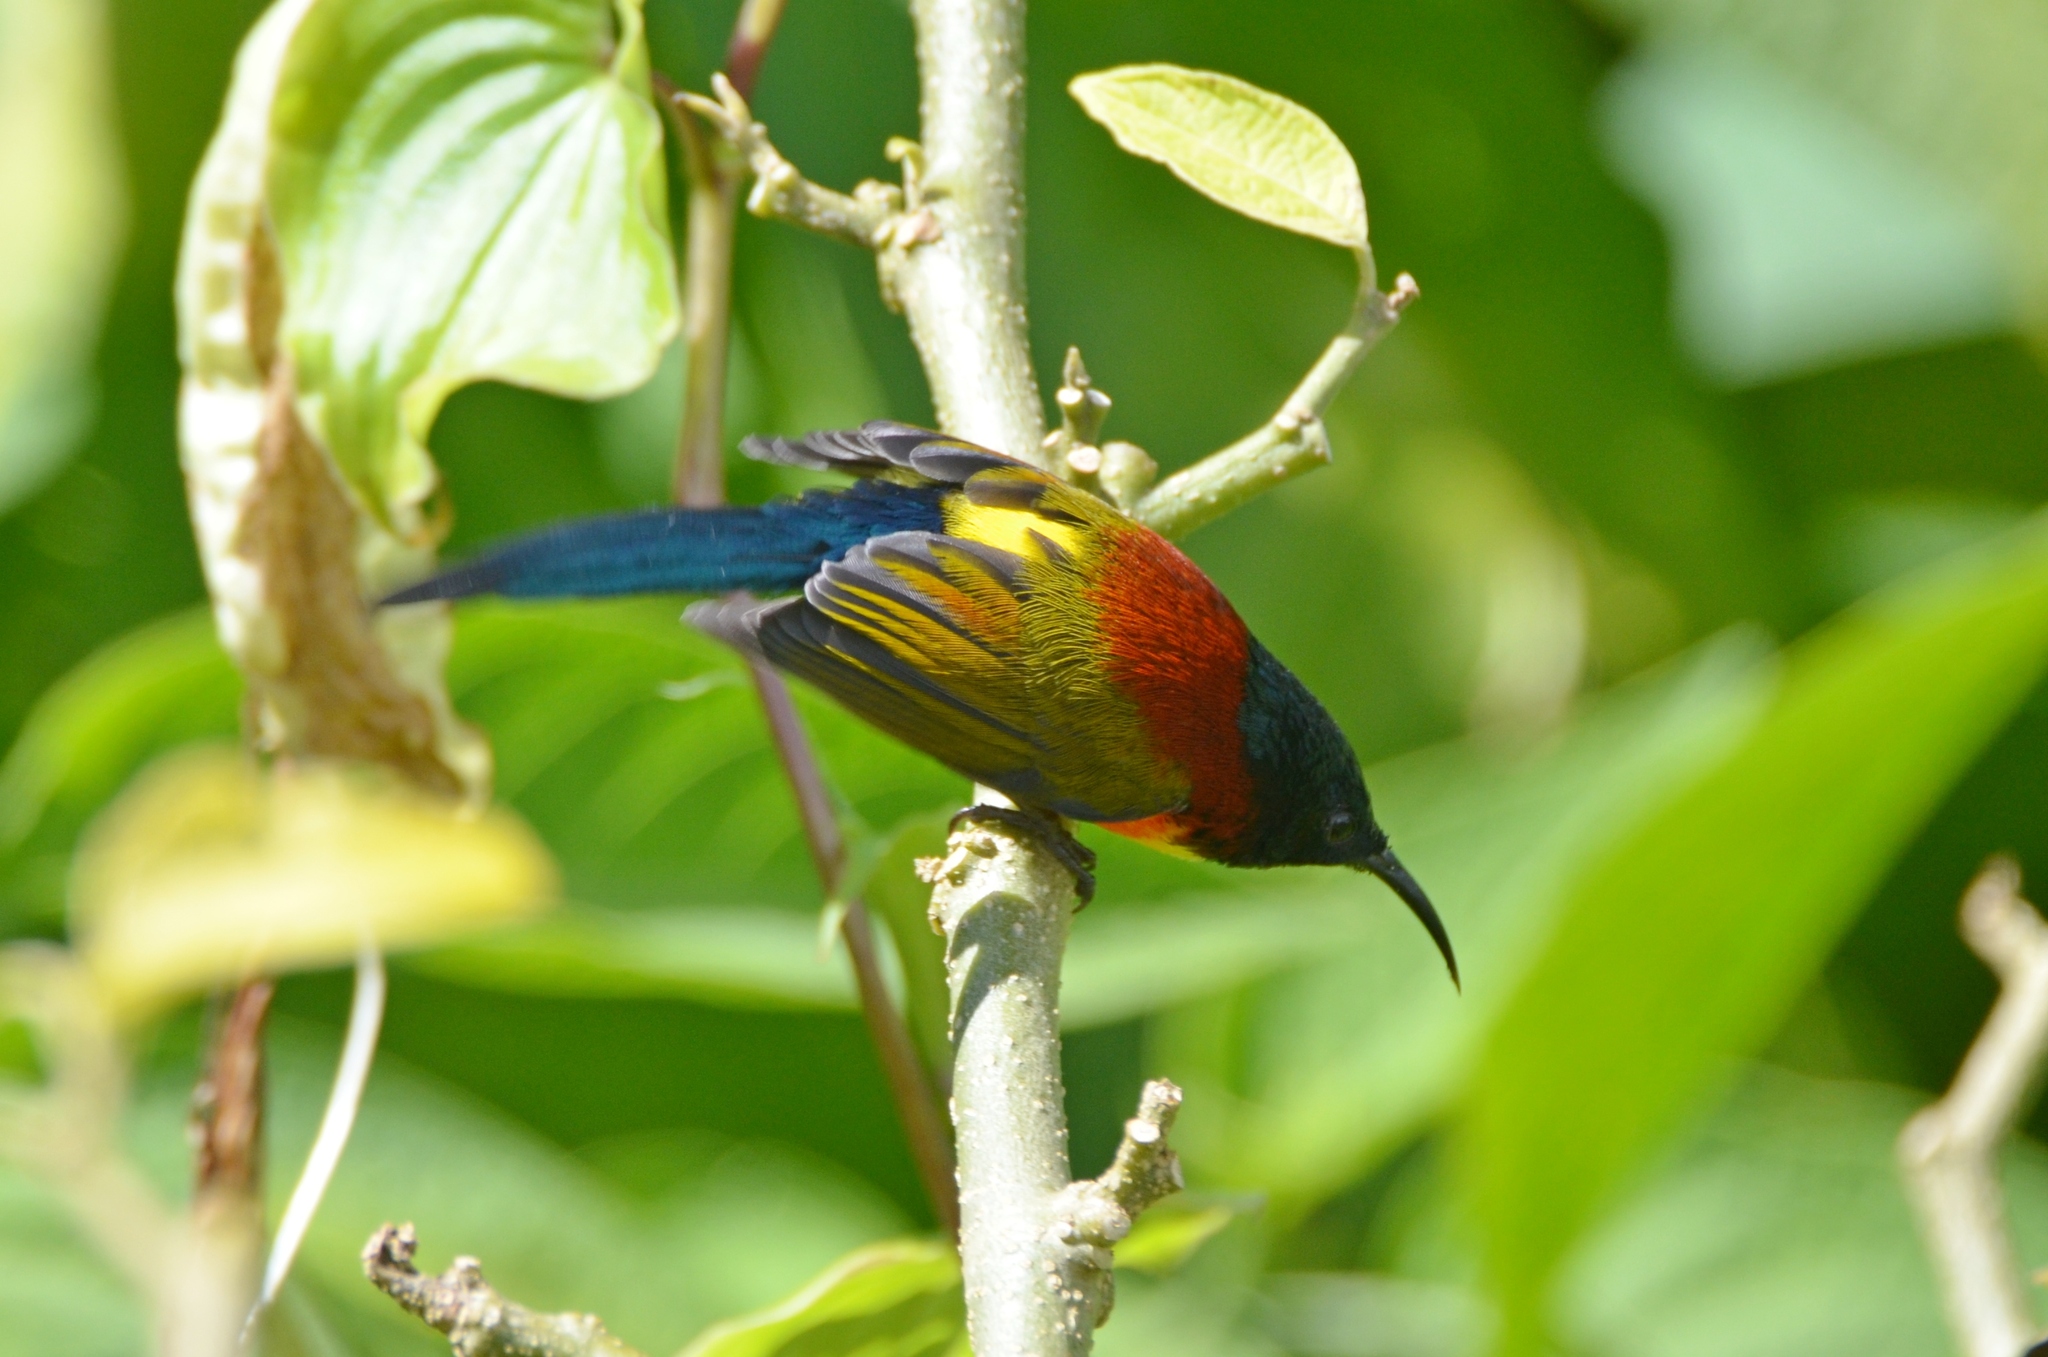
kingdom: Animalia
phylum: Chordata
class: Aves
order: Passeriformes
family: Nectariniidae
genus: Aethopyga
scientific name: Aethopyga nipalensis
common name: Green-tailed sunbird
